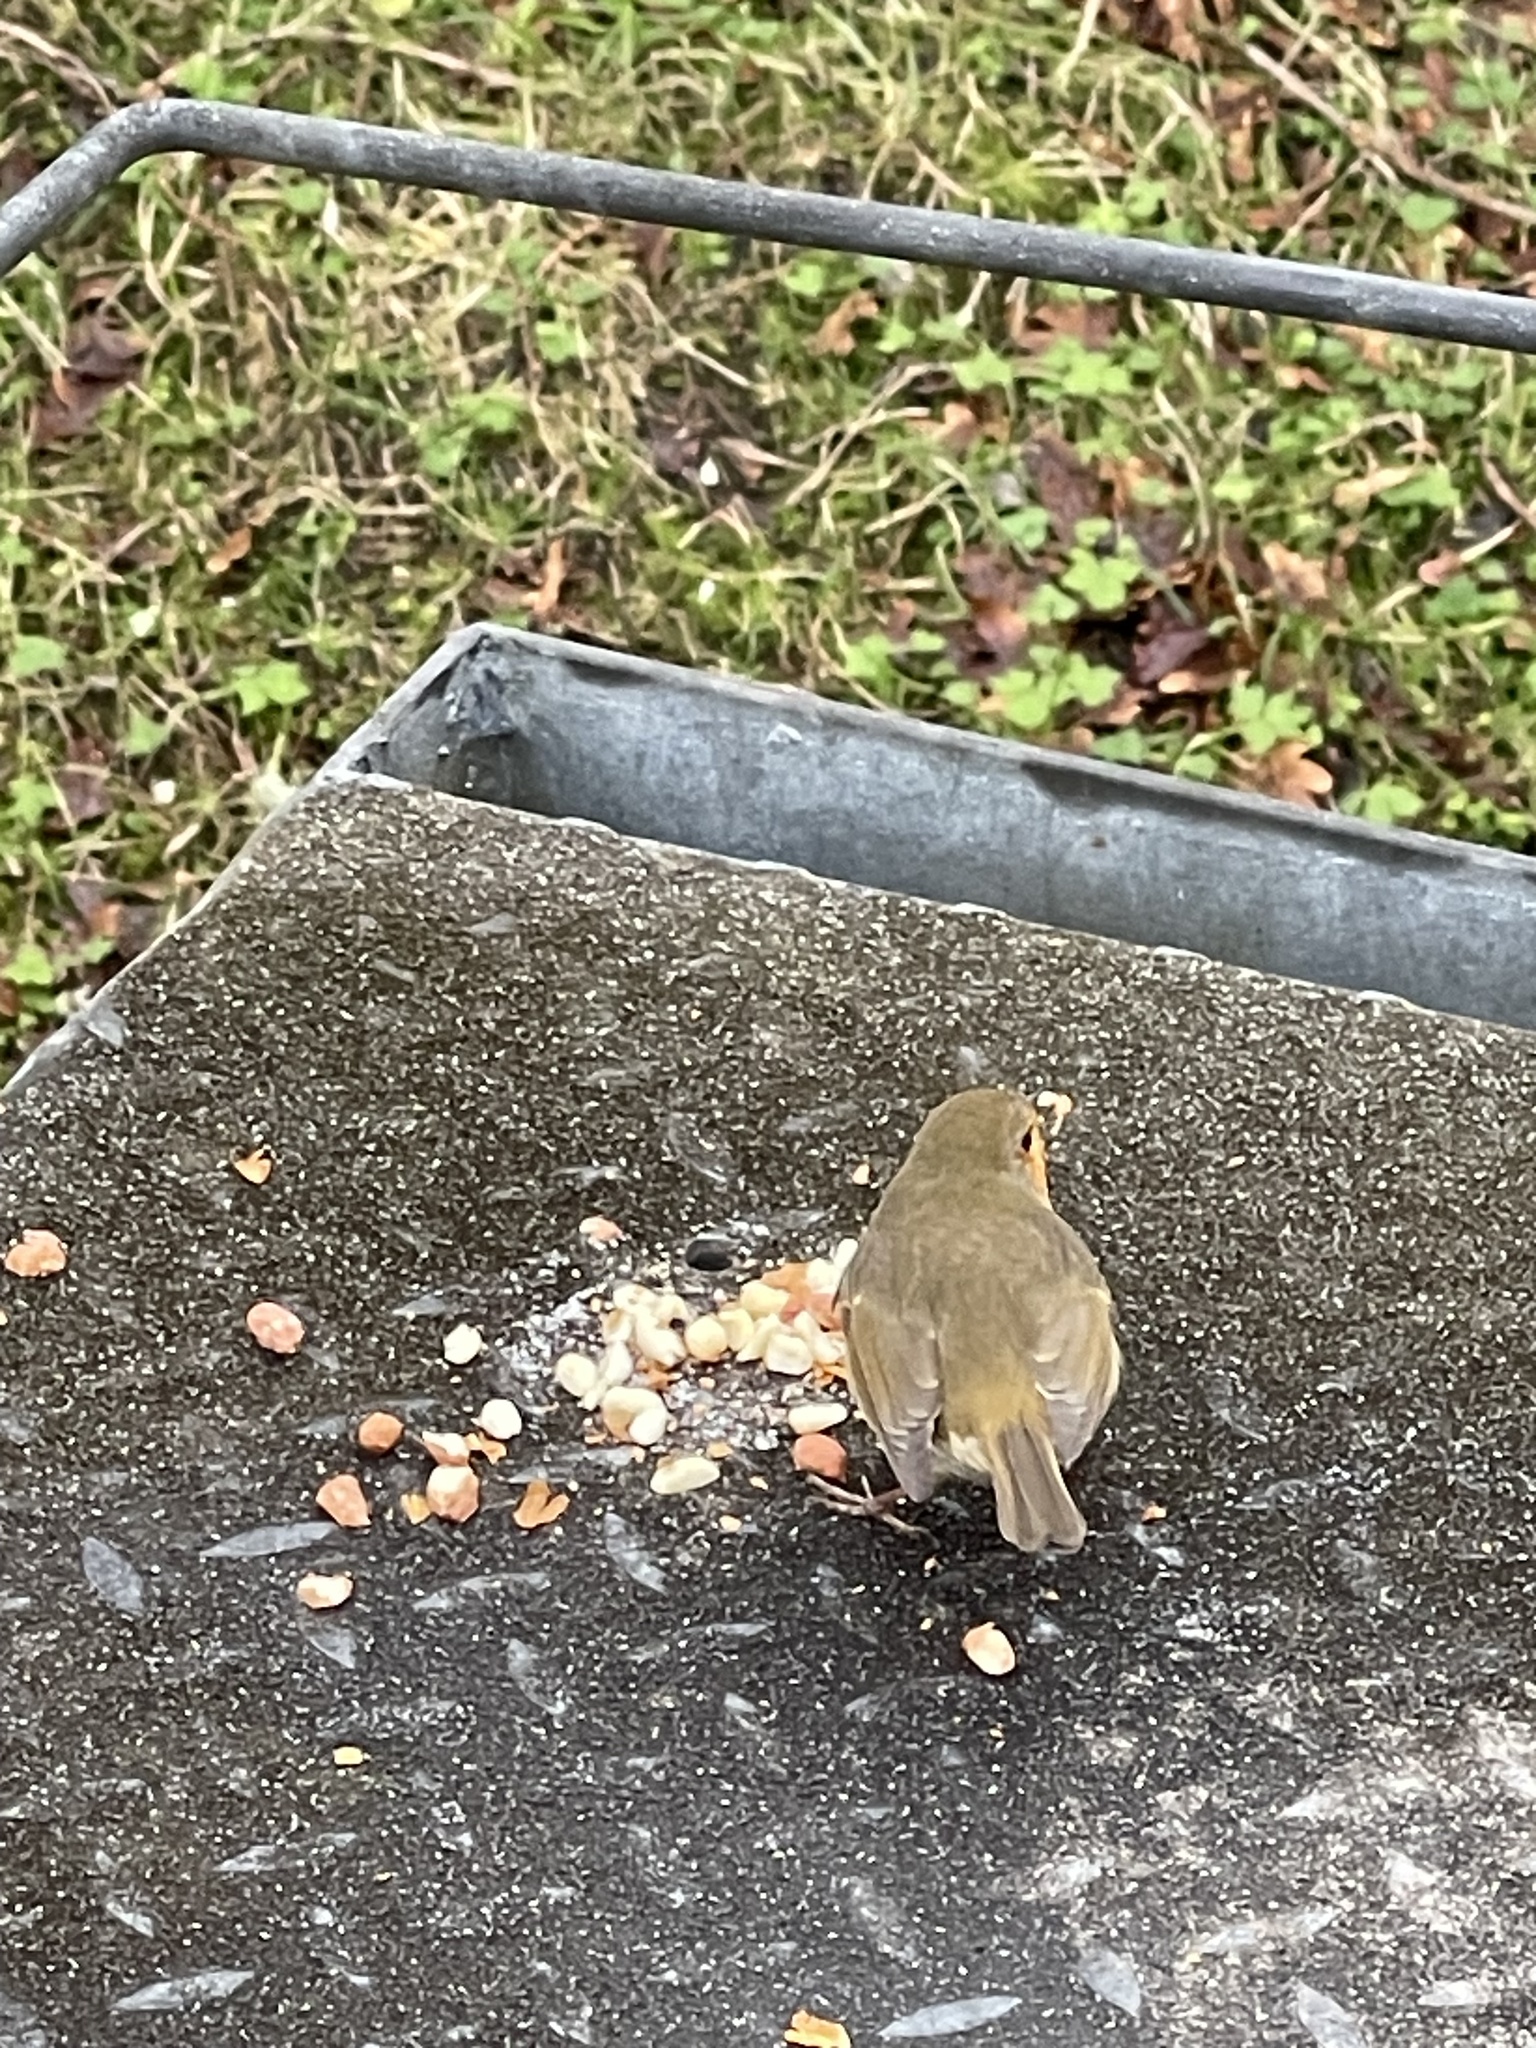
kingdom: Animalia
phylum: Chordata
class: Aves
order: Passeriformes
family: Muscicapidae
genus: Erithacus
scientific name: Erithacus rubecula
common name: European robin
